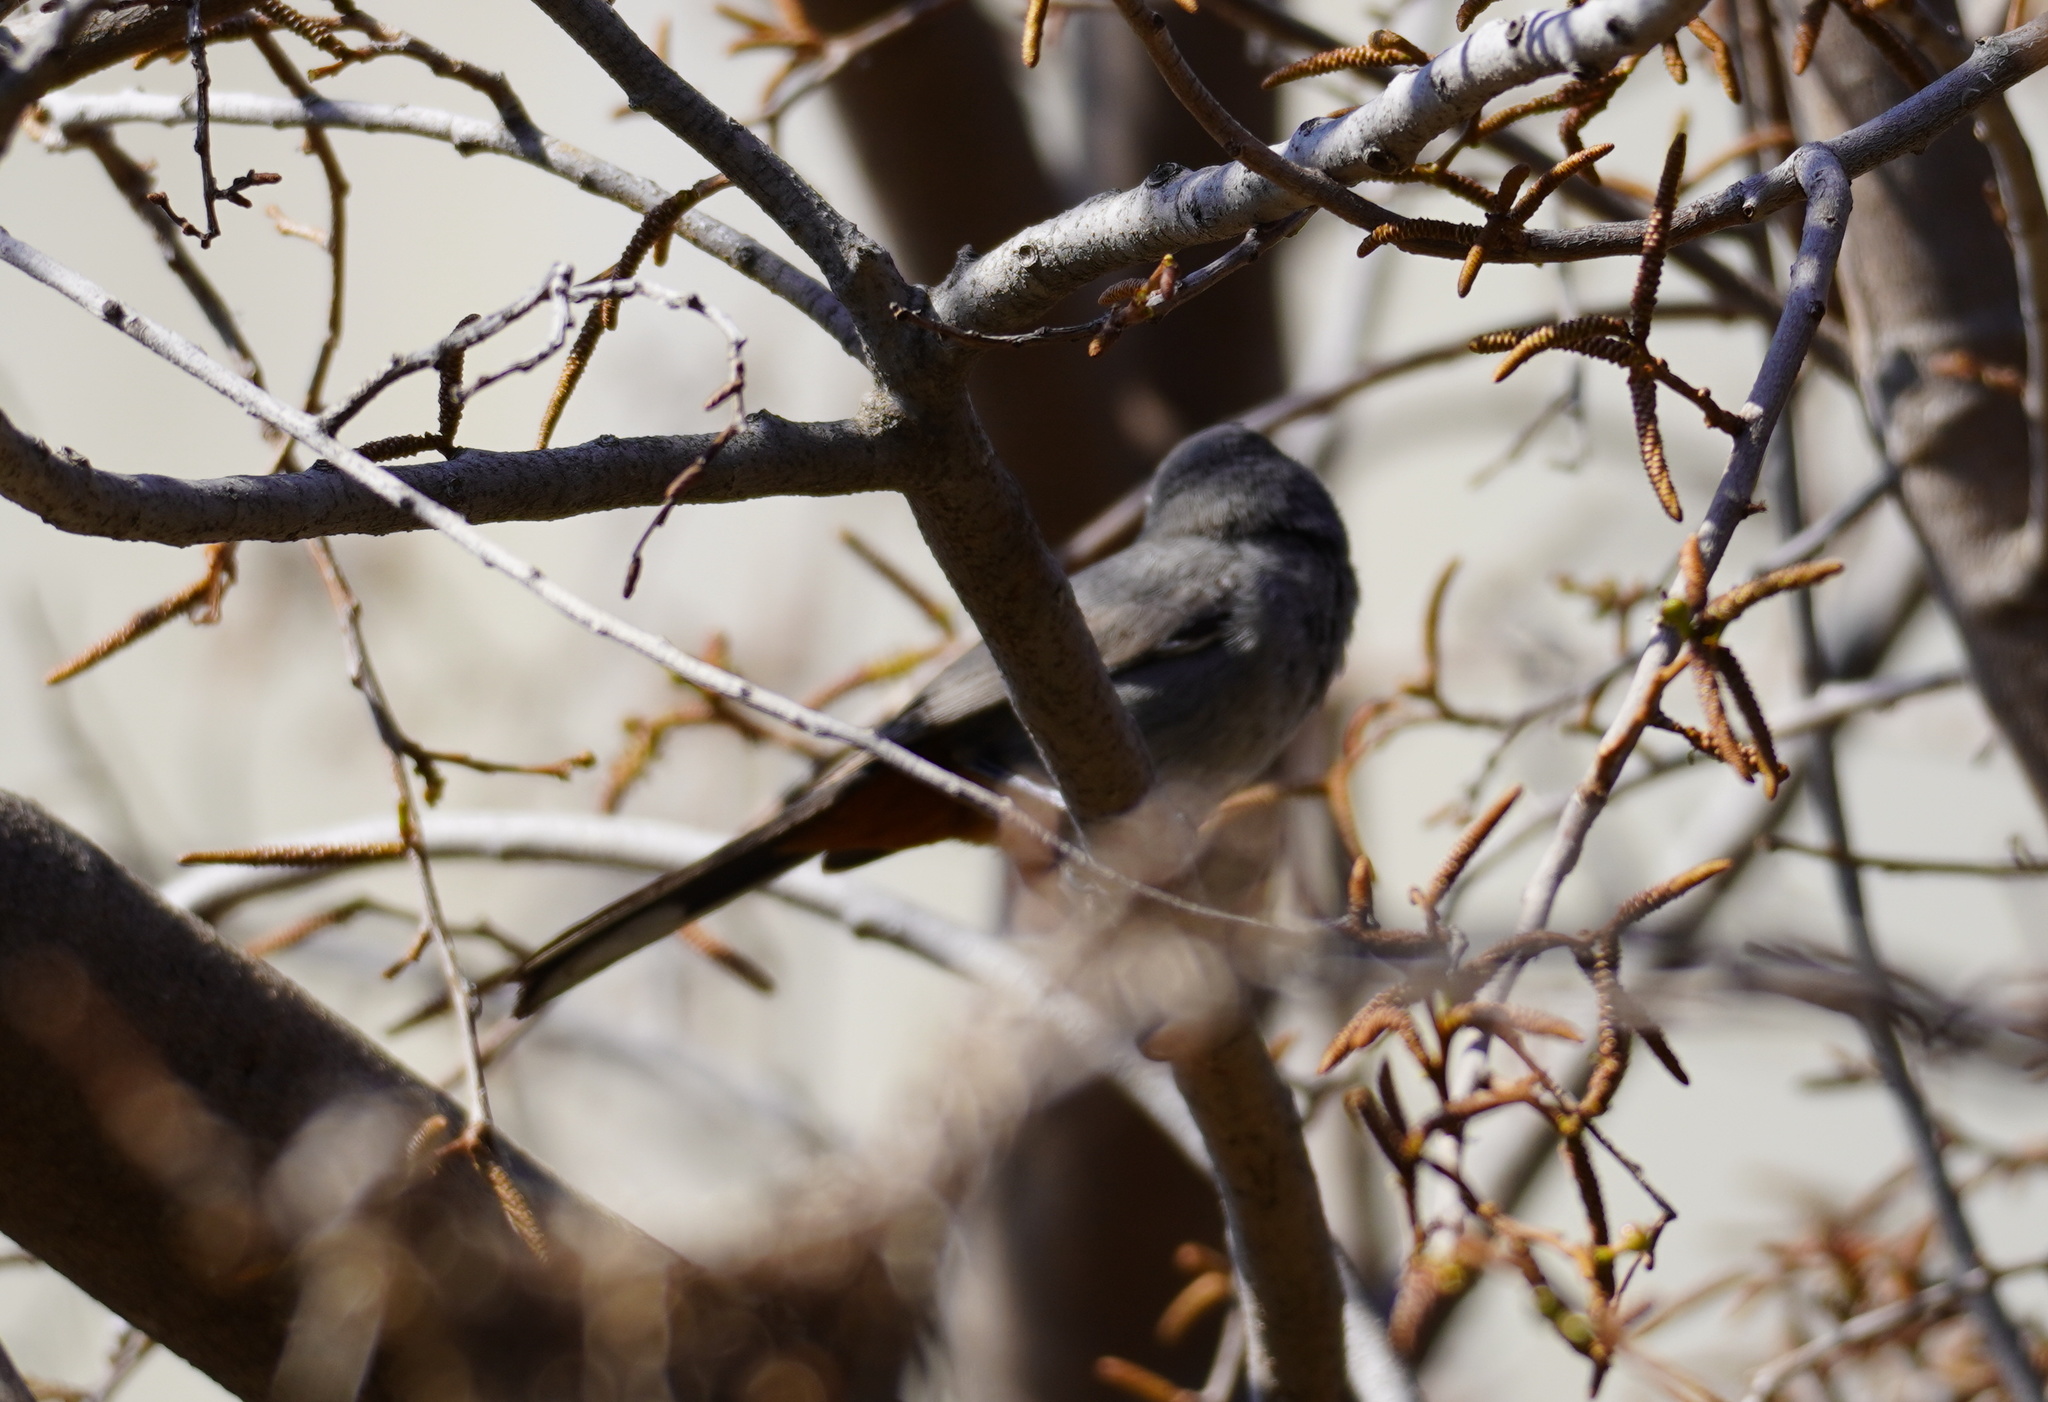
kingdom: Animalia
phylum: Chordata
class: Aves
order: Passeriformes
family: Sylviidae
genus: Curruca
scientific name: Curruca subcoerulea
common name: Chestnut-vented warbler
